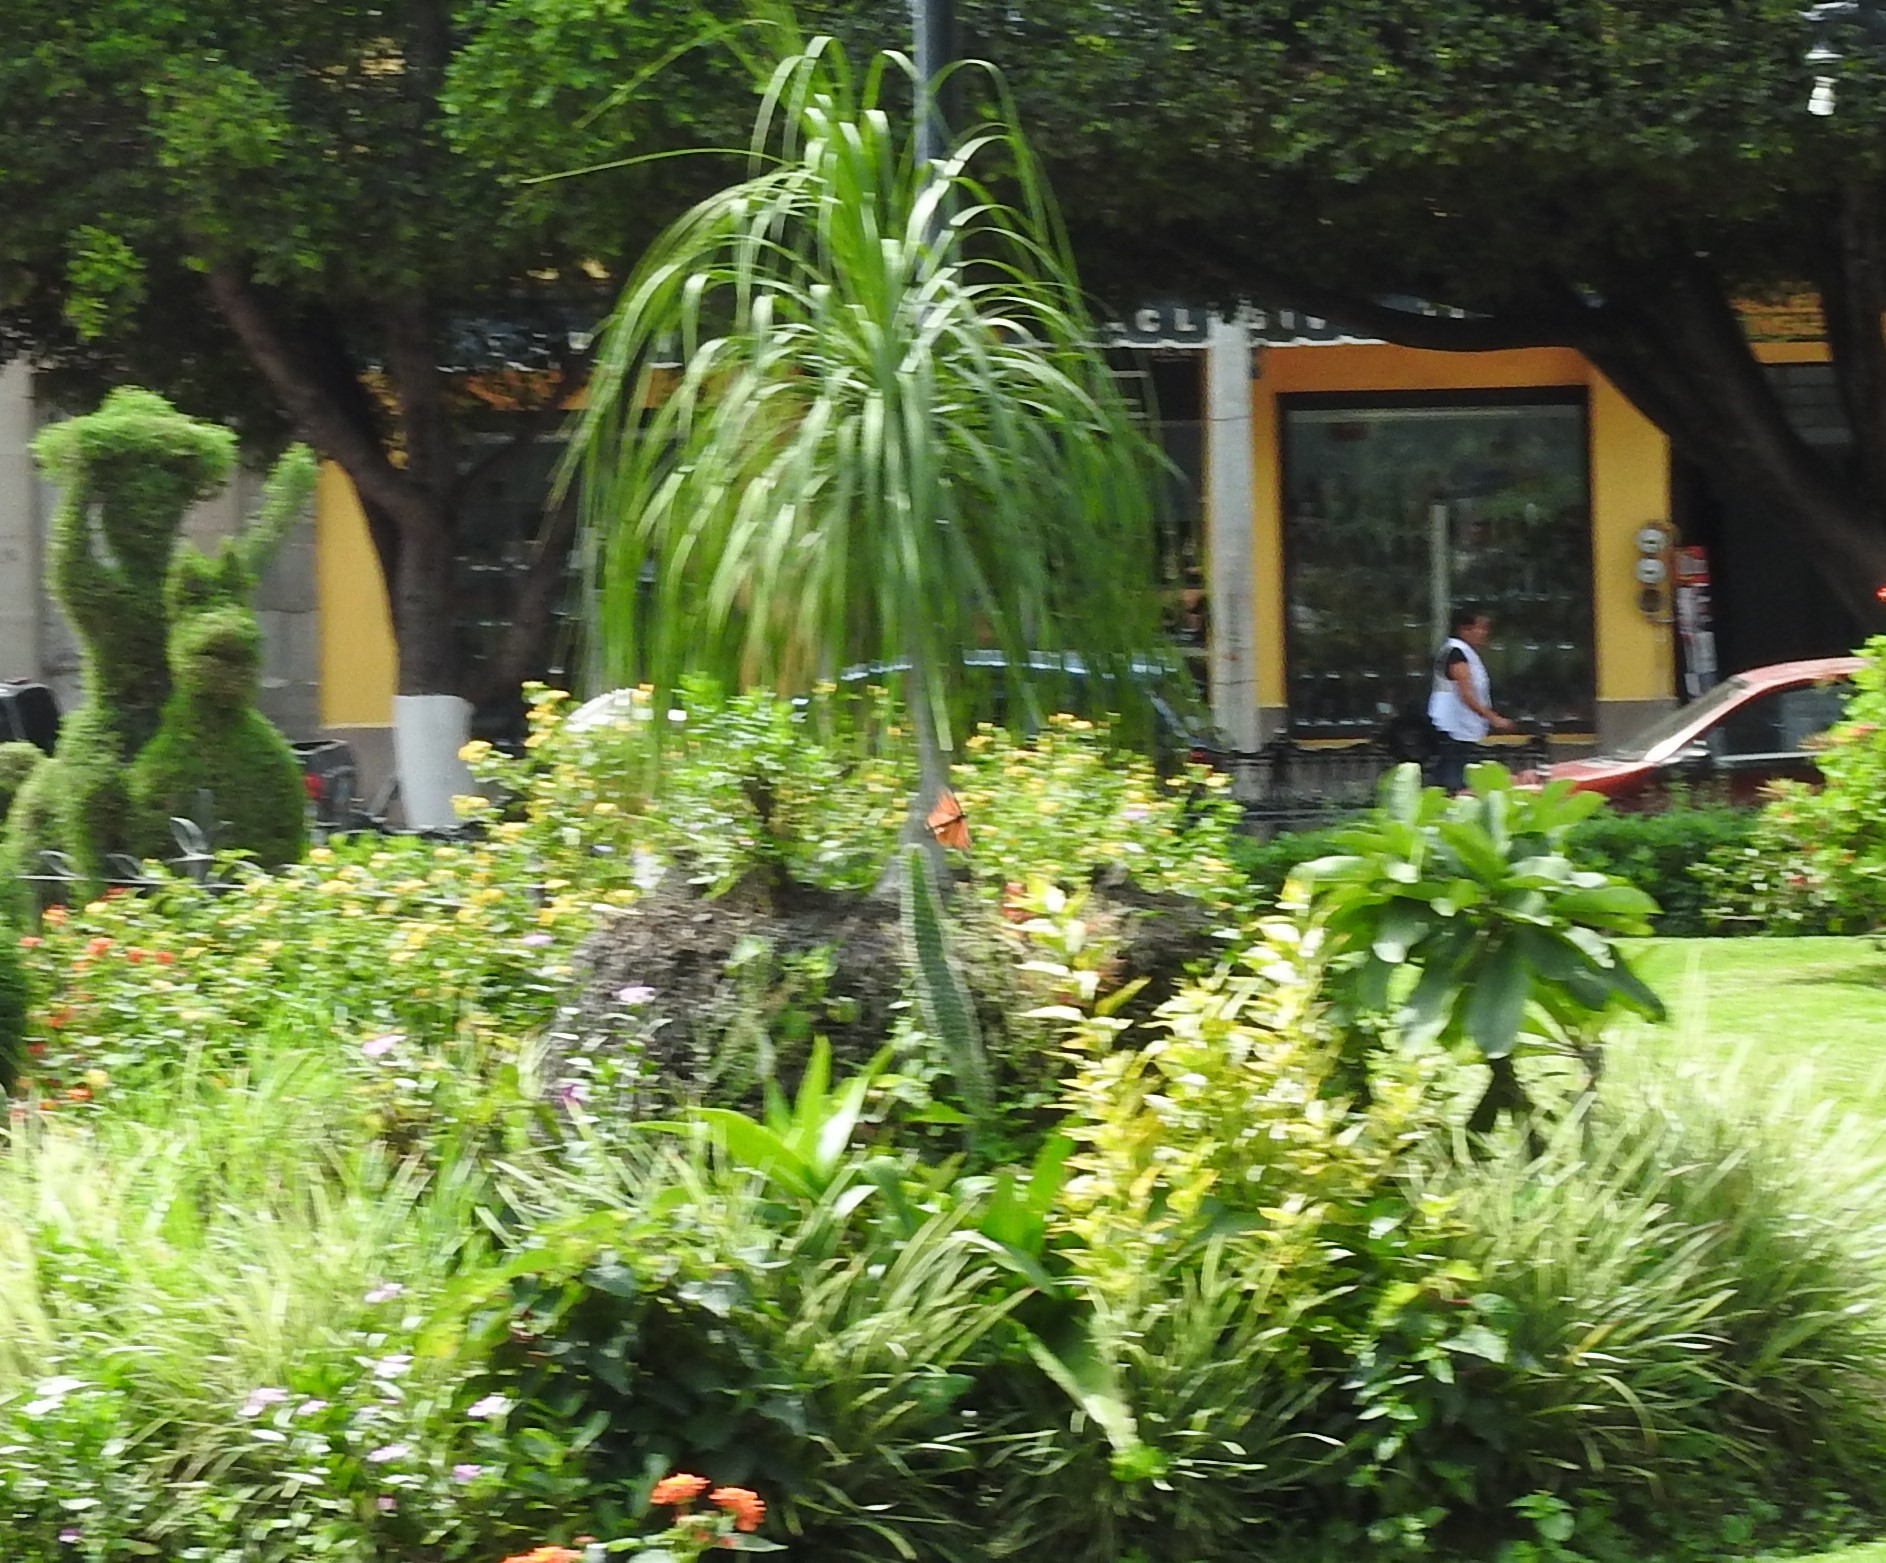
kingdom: Animalia
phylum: Arthropoda
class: Insecta
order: Lepidoptera
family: Nymphalidae
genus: Danaus
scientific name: Danaus plexippus
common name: Monarch
